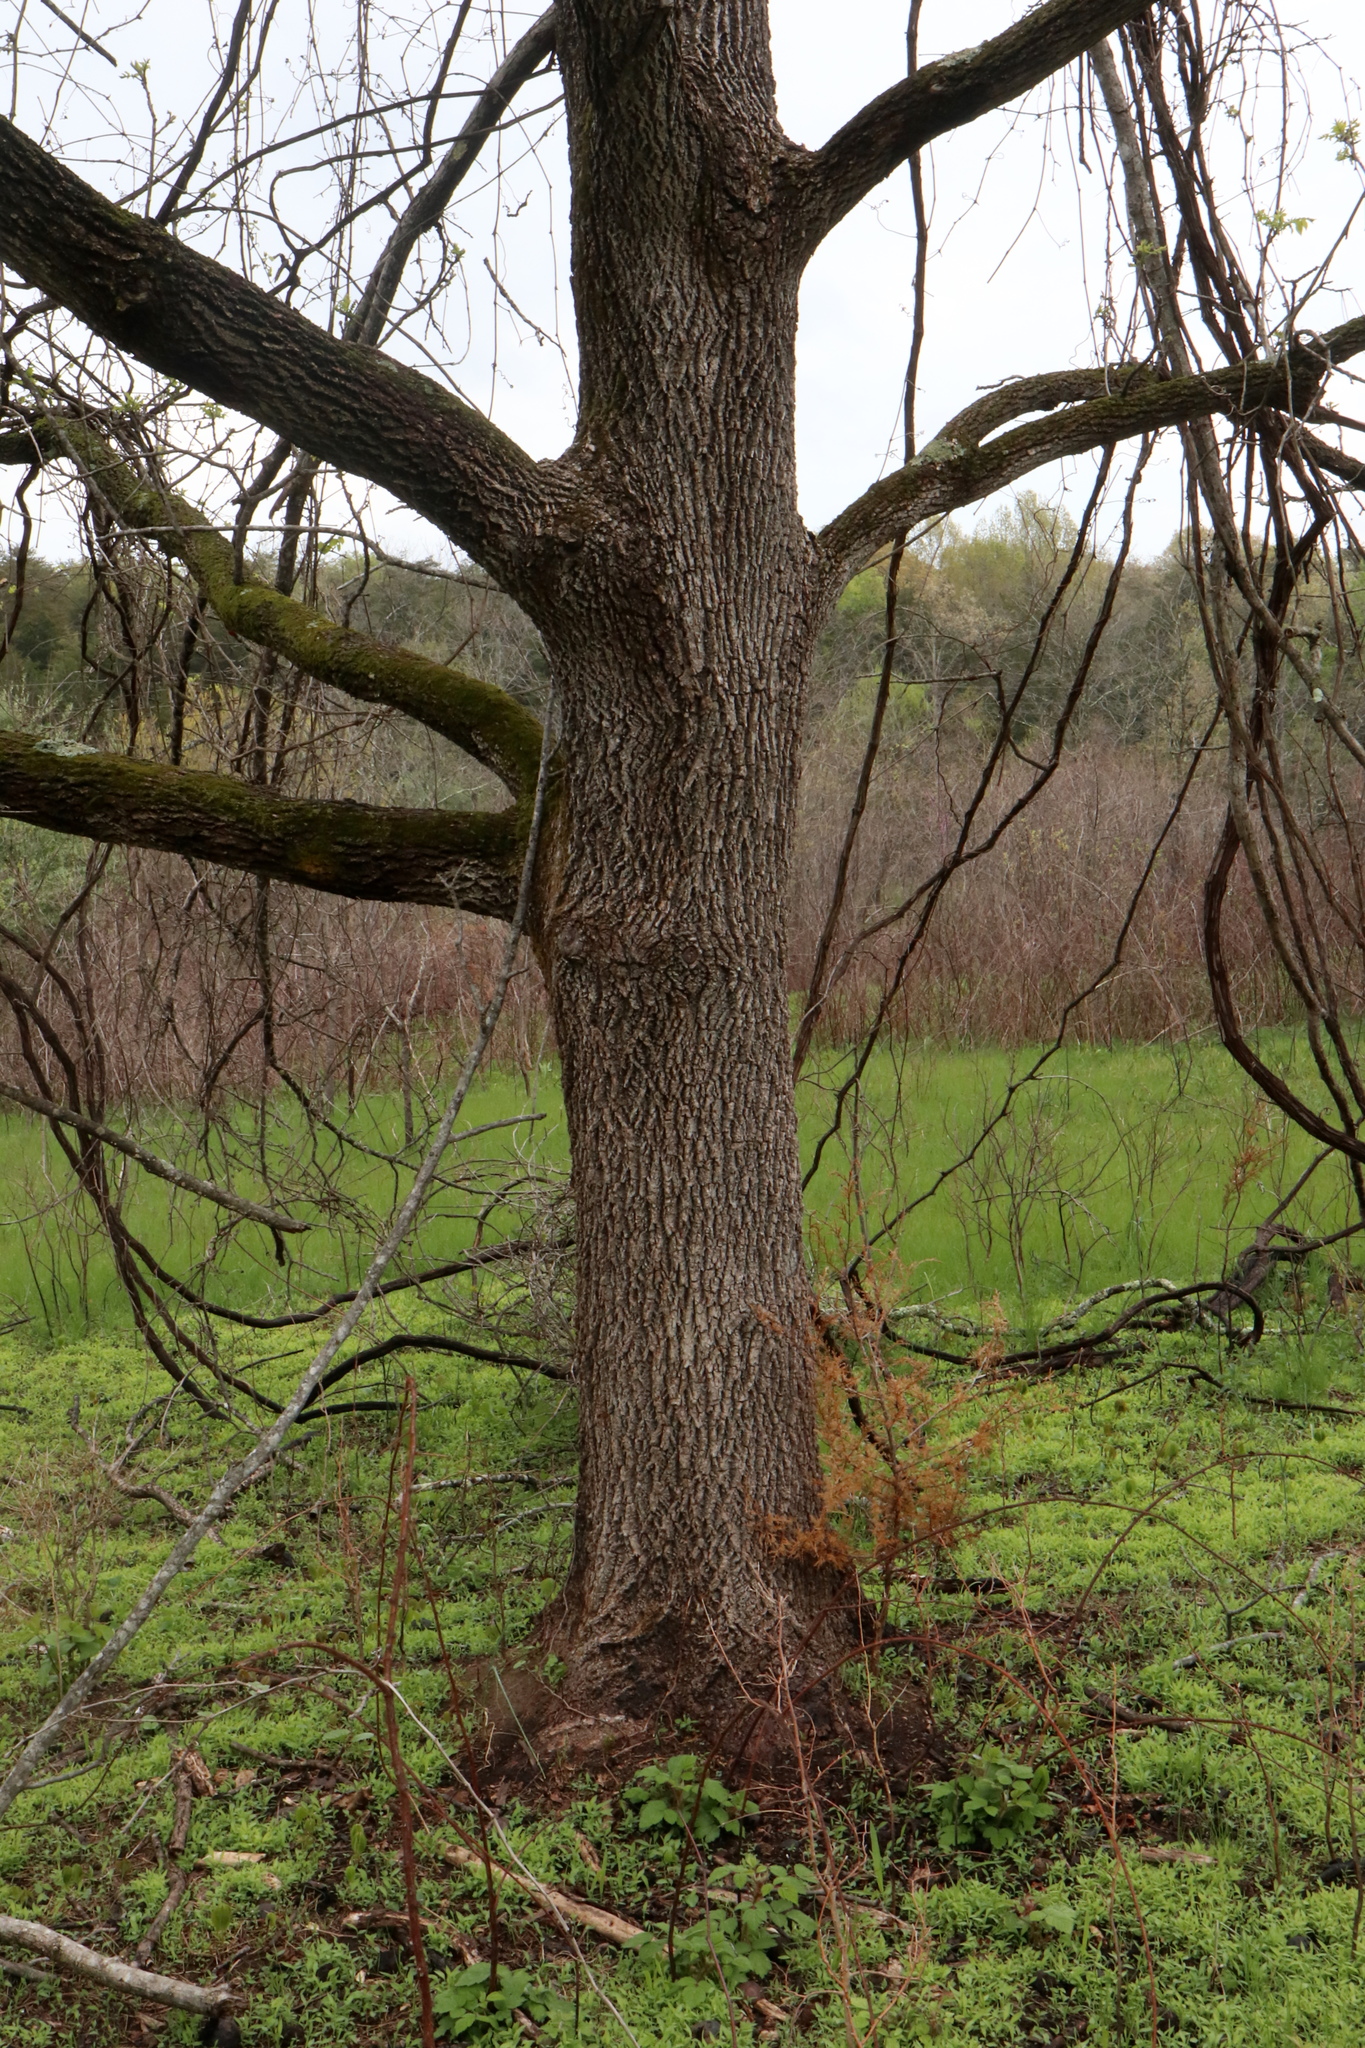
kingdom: Plantae
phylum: Tracheophyta
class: Magnoliopsida
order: Fagales
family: Juglandaceae
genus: Juglans
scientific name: Juglans nigra
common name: Black walnut
